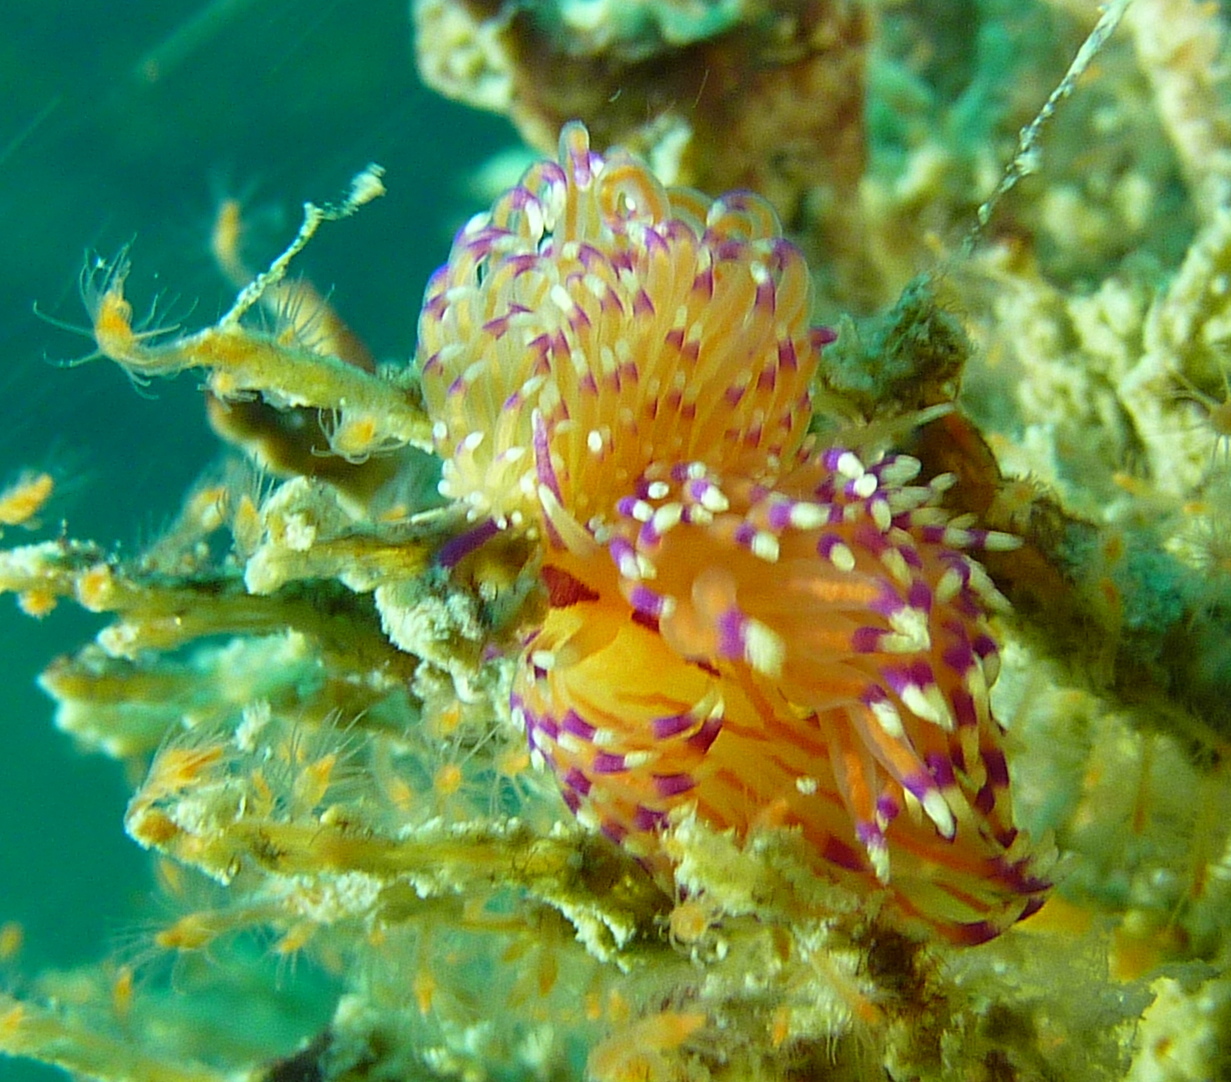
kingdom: Animalia
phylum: Mollusca
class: Gastropoda
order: Nudibranchia
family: Unidentiidae
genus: Unidentia
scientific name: Unidentia aliciae
